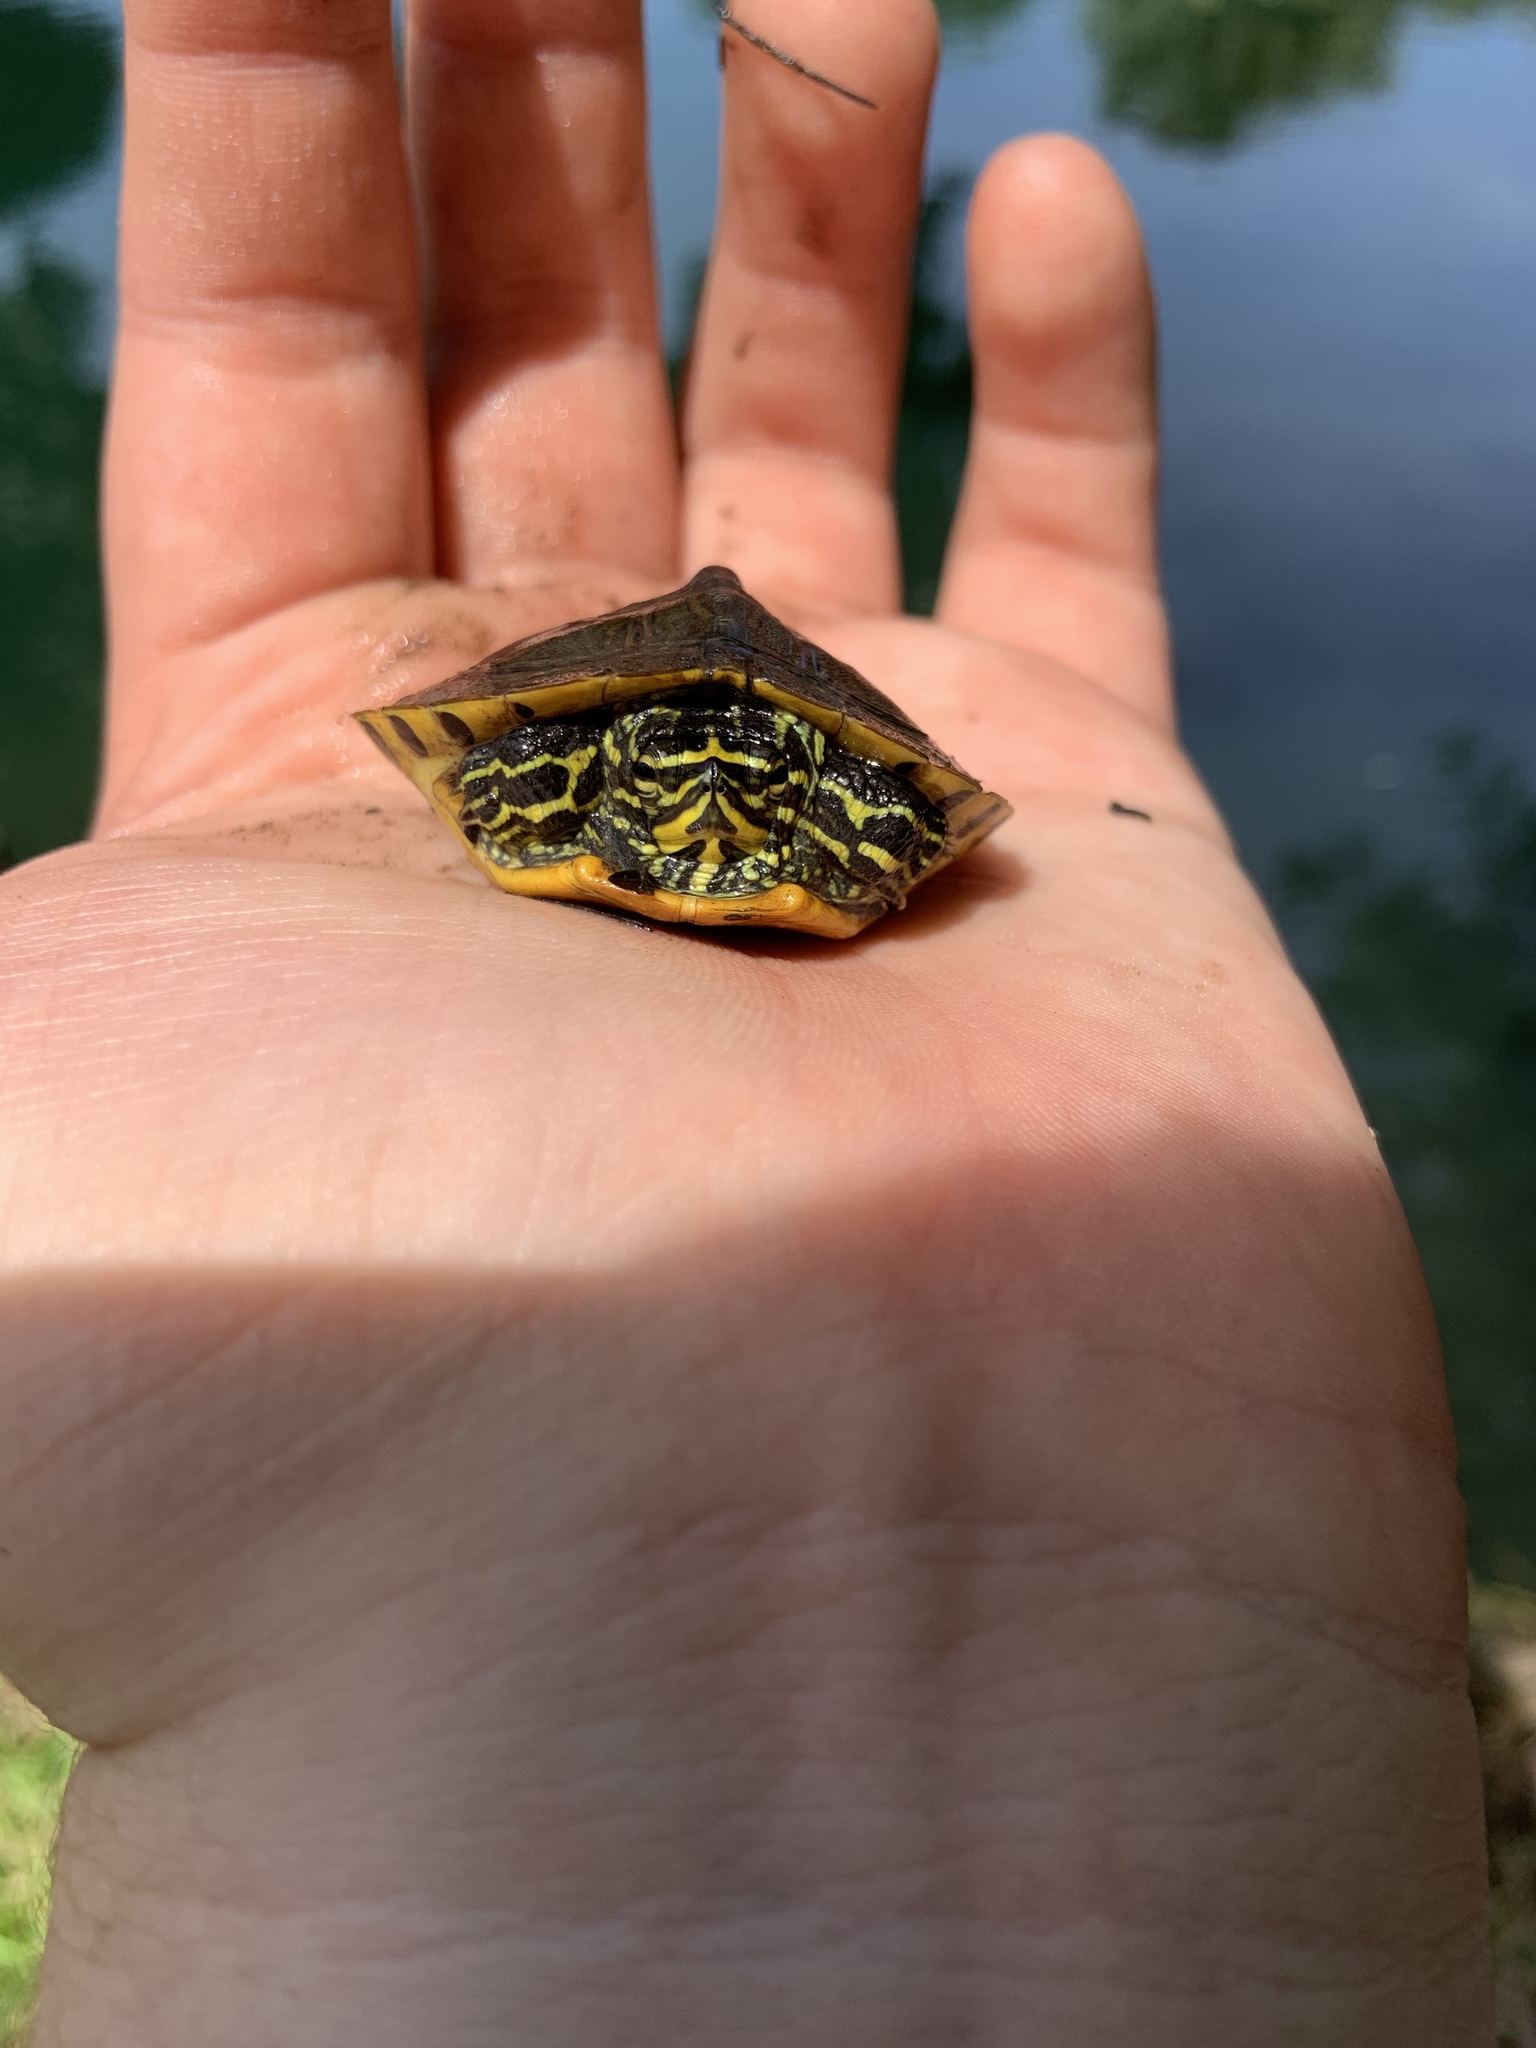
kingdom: Animalia
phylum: Chordata
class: Testudines
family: Emydidae
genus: Trachemys
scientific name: Trachemys scripta
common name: Slider
